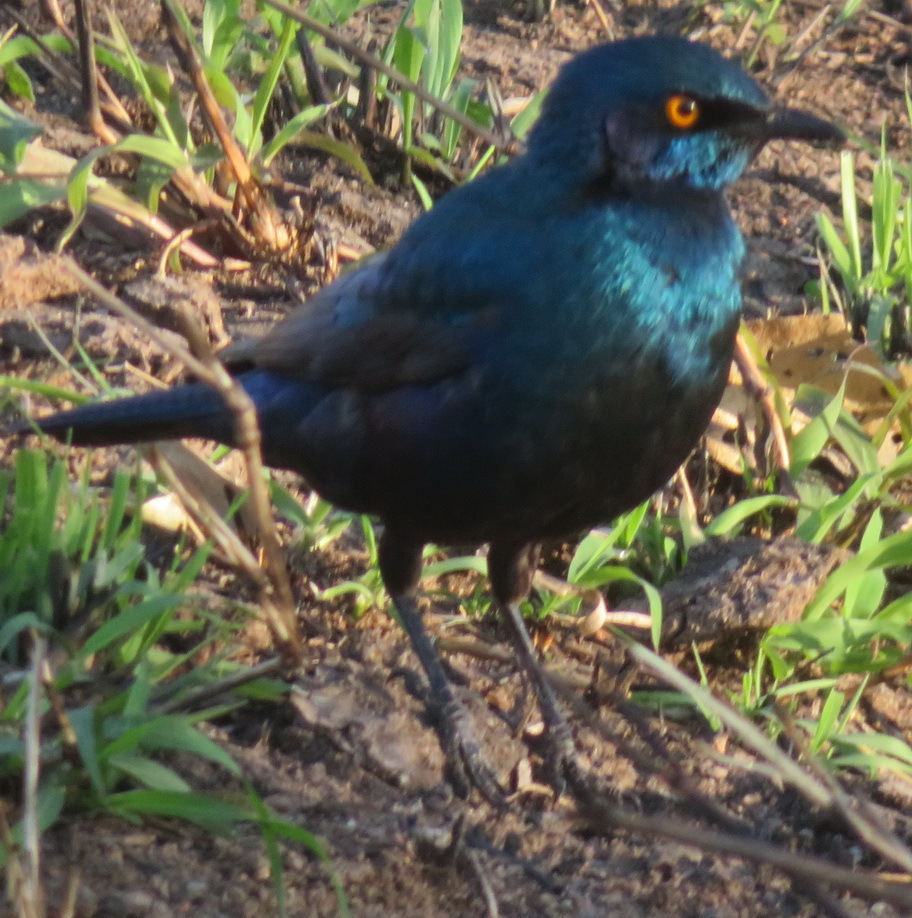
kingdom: Animalia
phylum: Chordata
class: Aves
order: Passeriformes
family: Sturnidae
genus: Lamprotornis
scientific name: Lamprotornis nitens
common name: Cape starling
